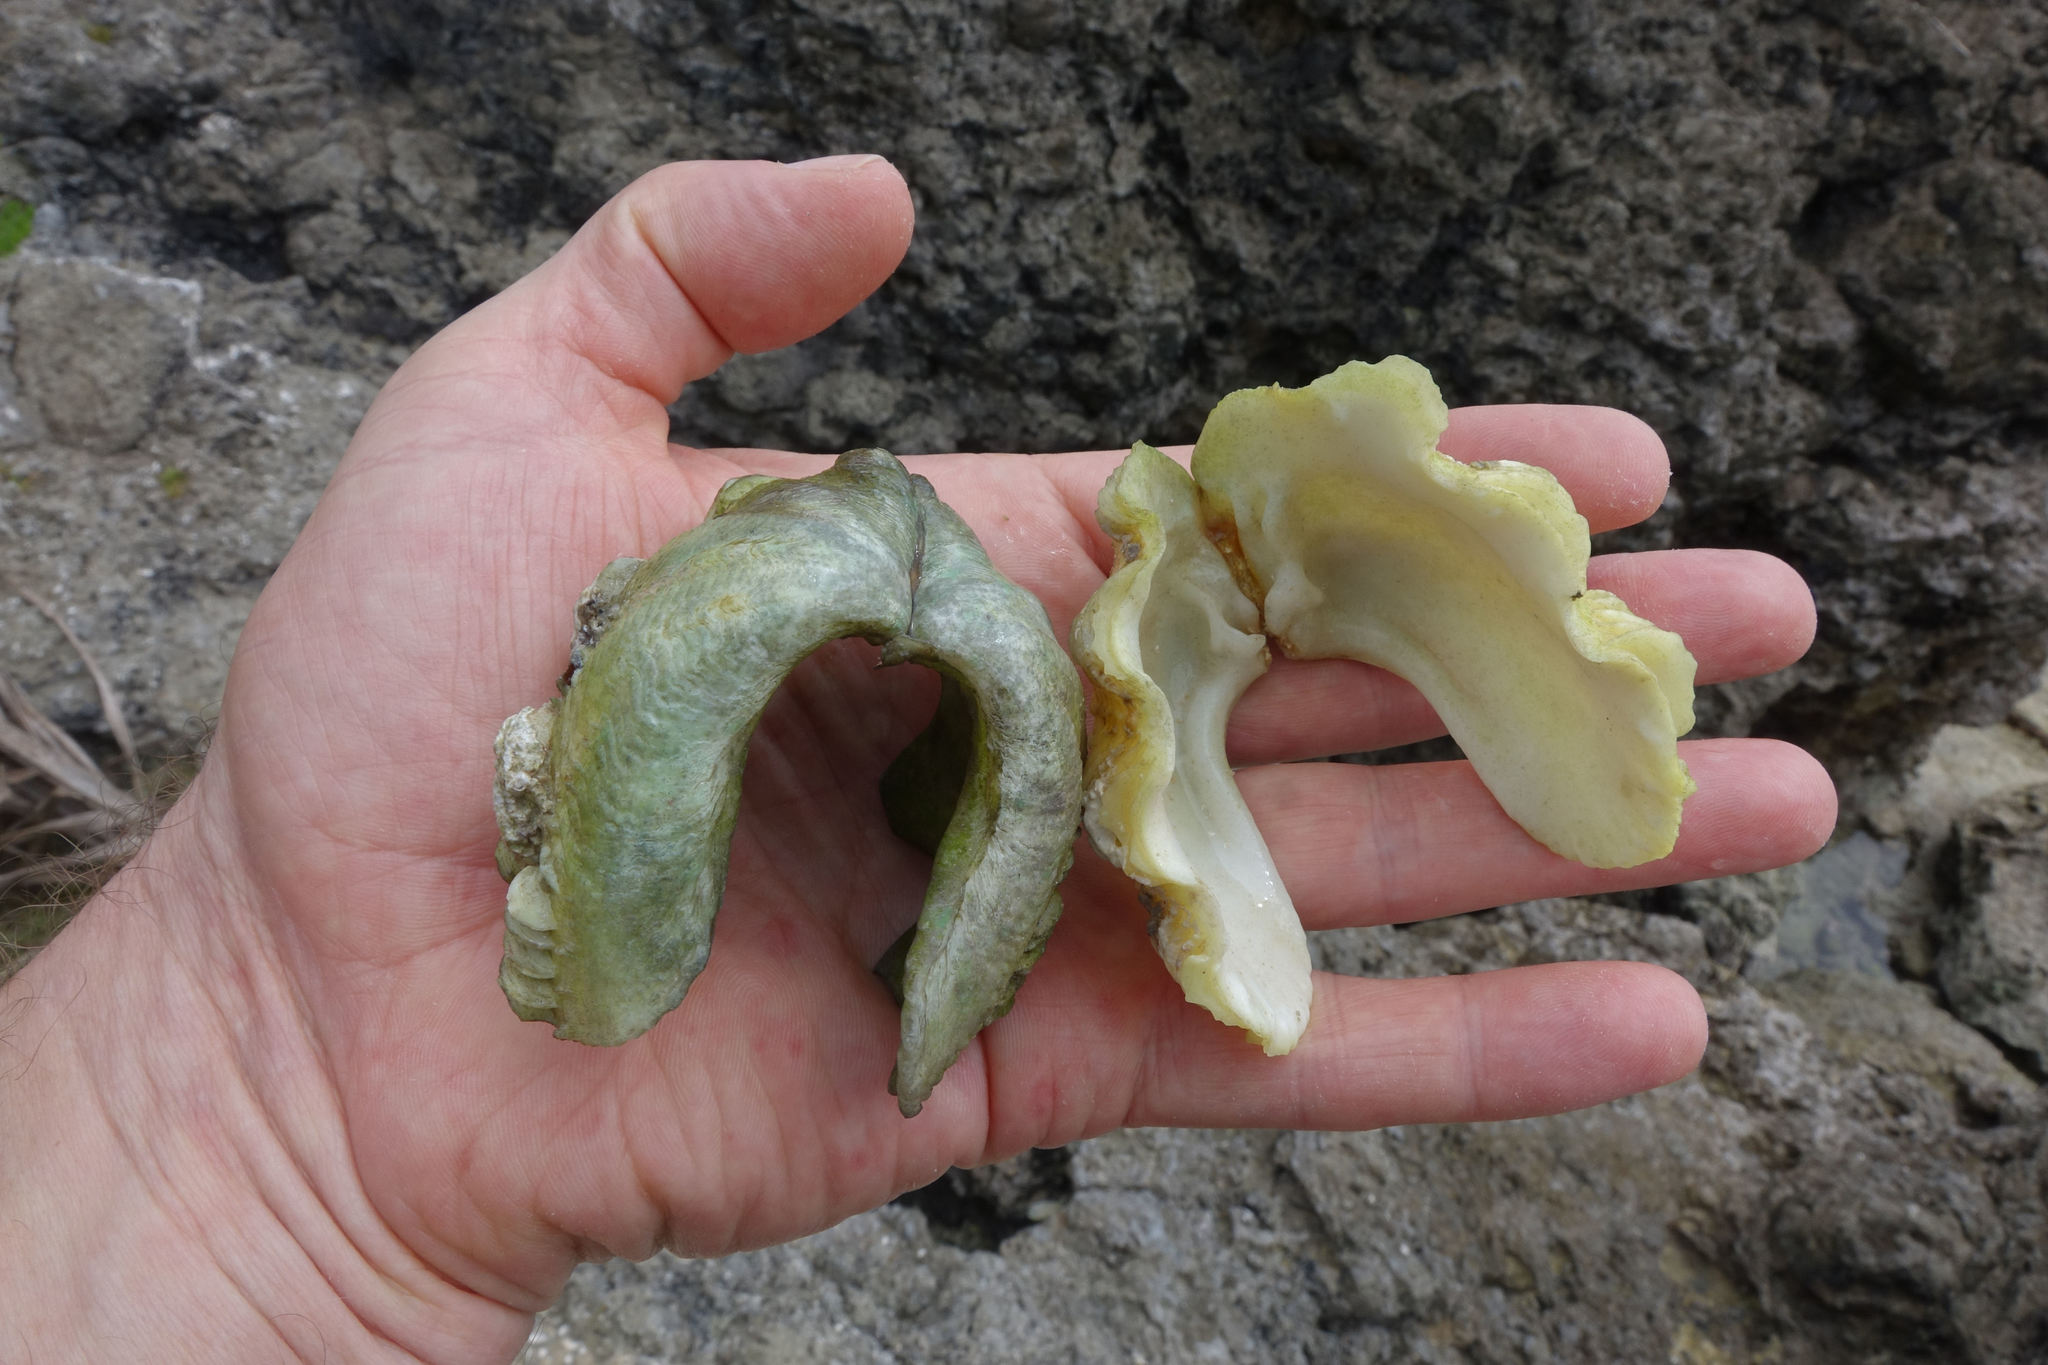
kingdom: Animalia
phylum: Mollusca
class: Bivalvia
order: Cardiida
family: Cardiidae
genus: Tridacna
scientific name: Tridacna maxima
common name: Small giant clam
